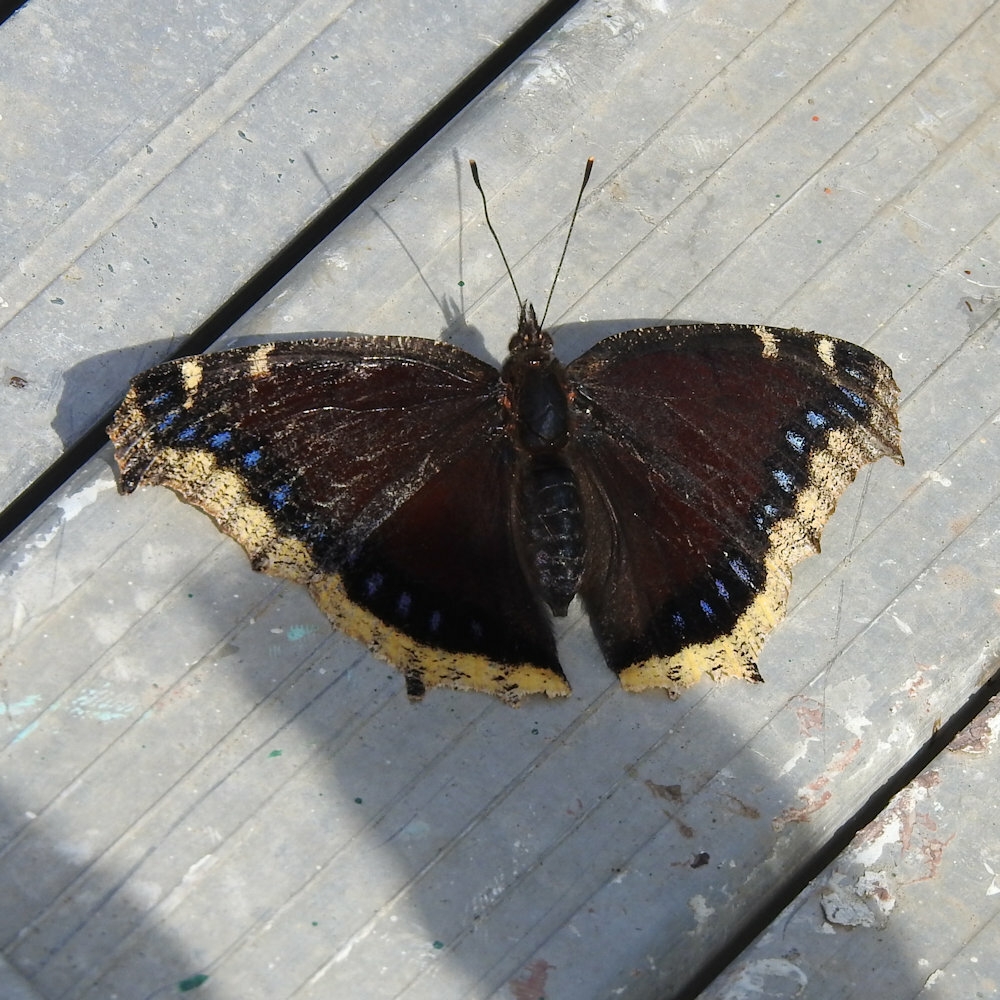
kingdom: Animalia
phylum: Arthropoda
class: Insecta
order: Lepidoptera
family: Nymphalidae
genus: Nymphalis
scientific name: Nymphalis antiopa
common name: Camberwell beauty
